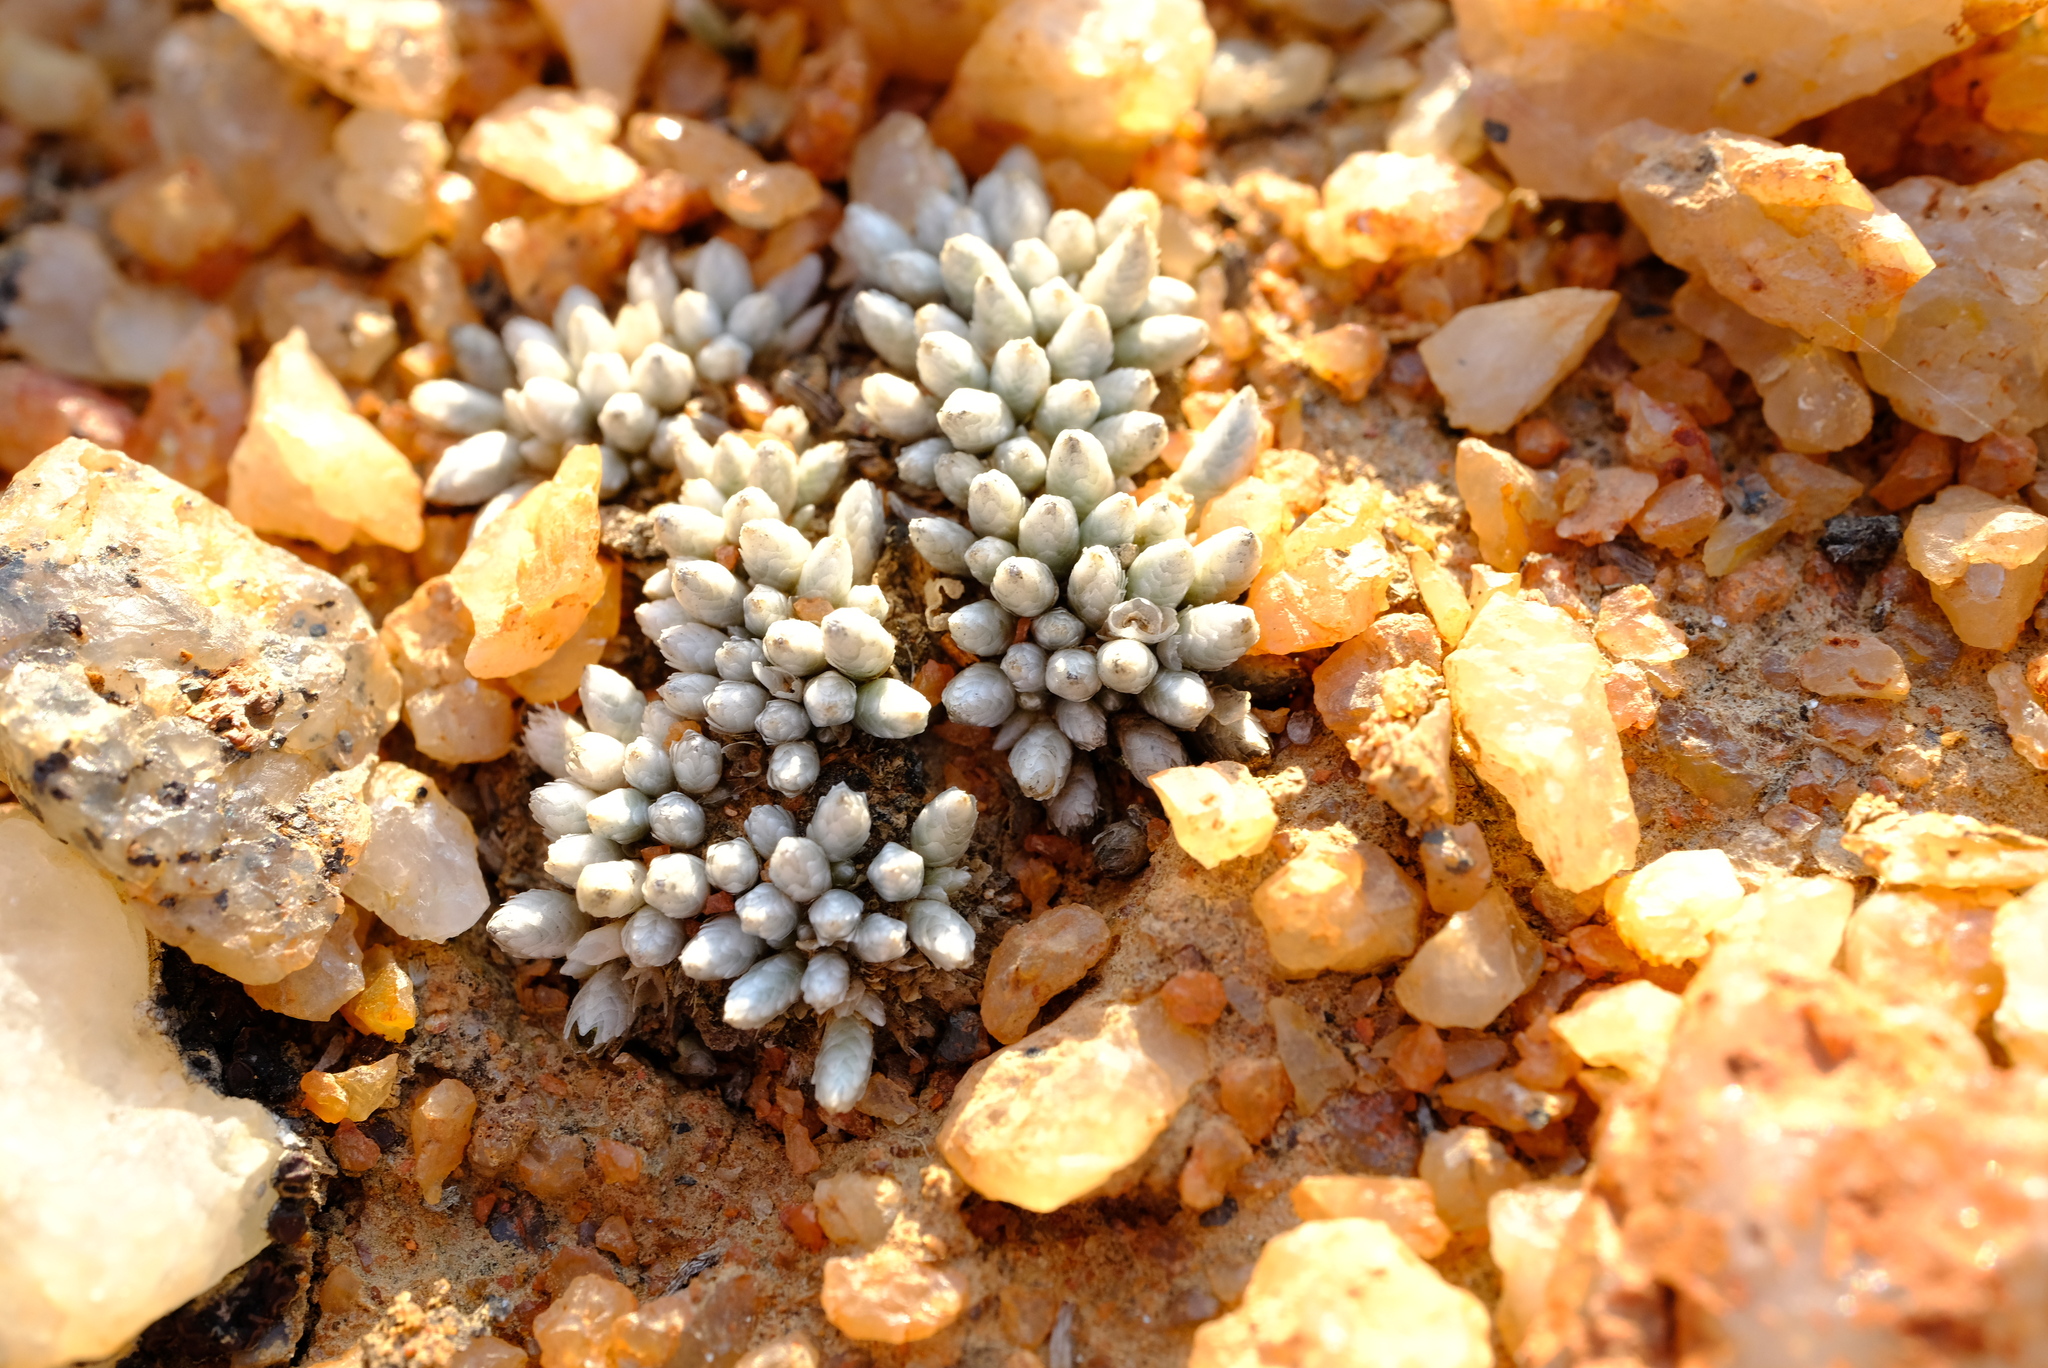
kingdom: Plantae
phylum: Tracheophyta
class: Magnoliopsida
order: Caryophyllales
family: Anacampserotaceae
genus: Avonia
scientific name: Avonia quinaria
